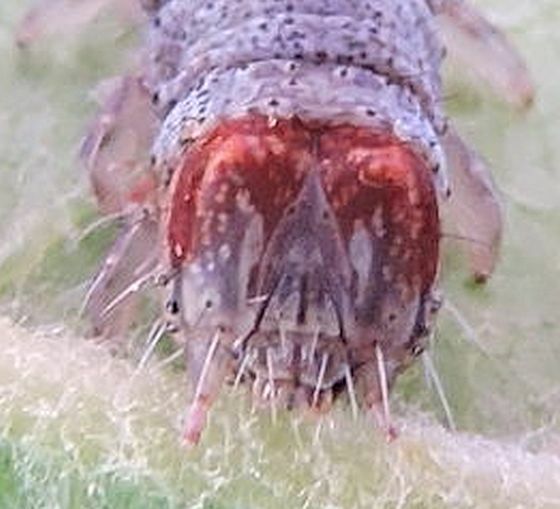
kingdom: Animalia
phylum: Arthropoda
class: Insecta
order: Lepidoptera
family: Erebidae
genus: Catocala
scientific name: Catocala grynea
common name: Woody underwing
